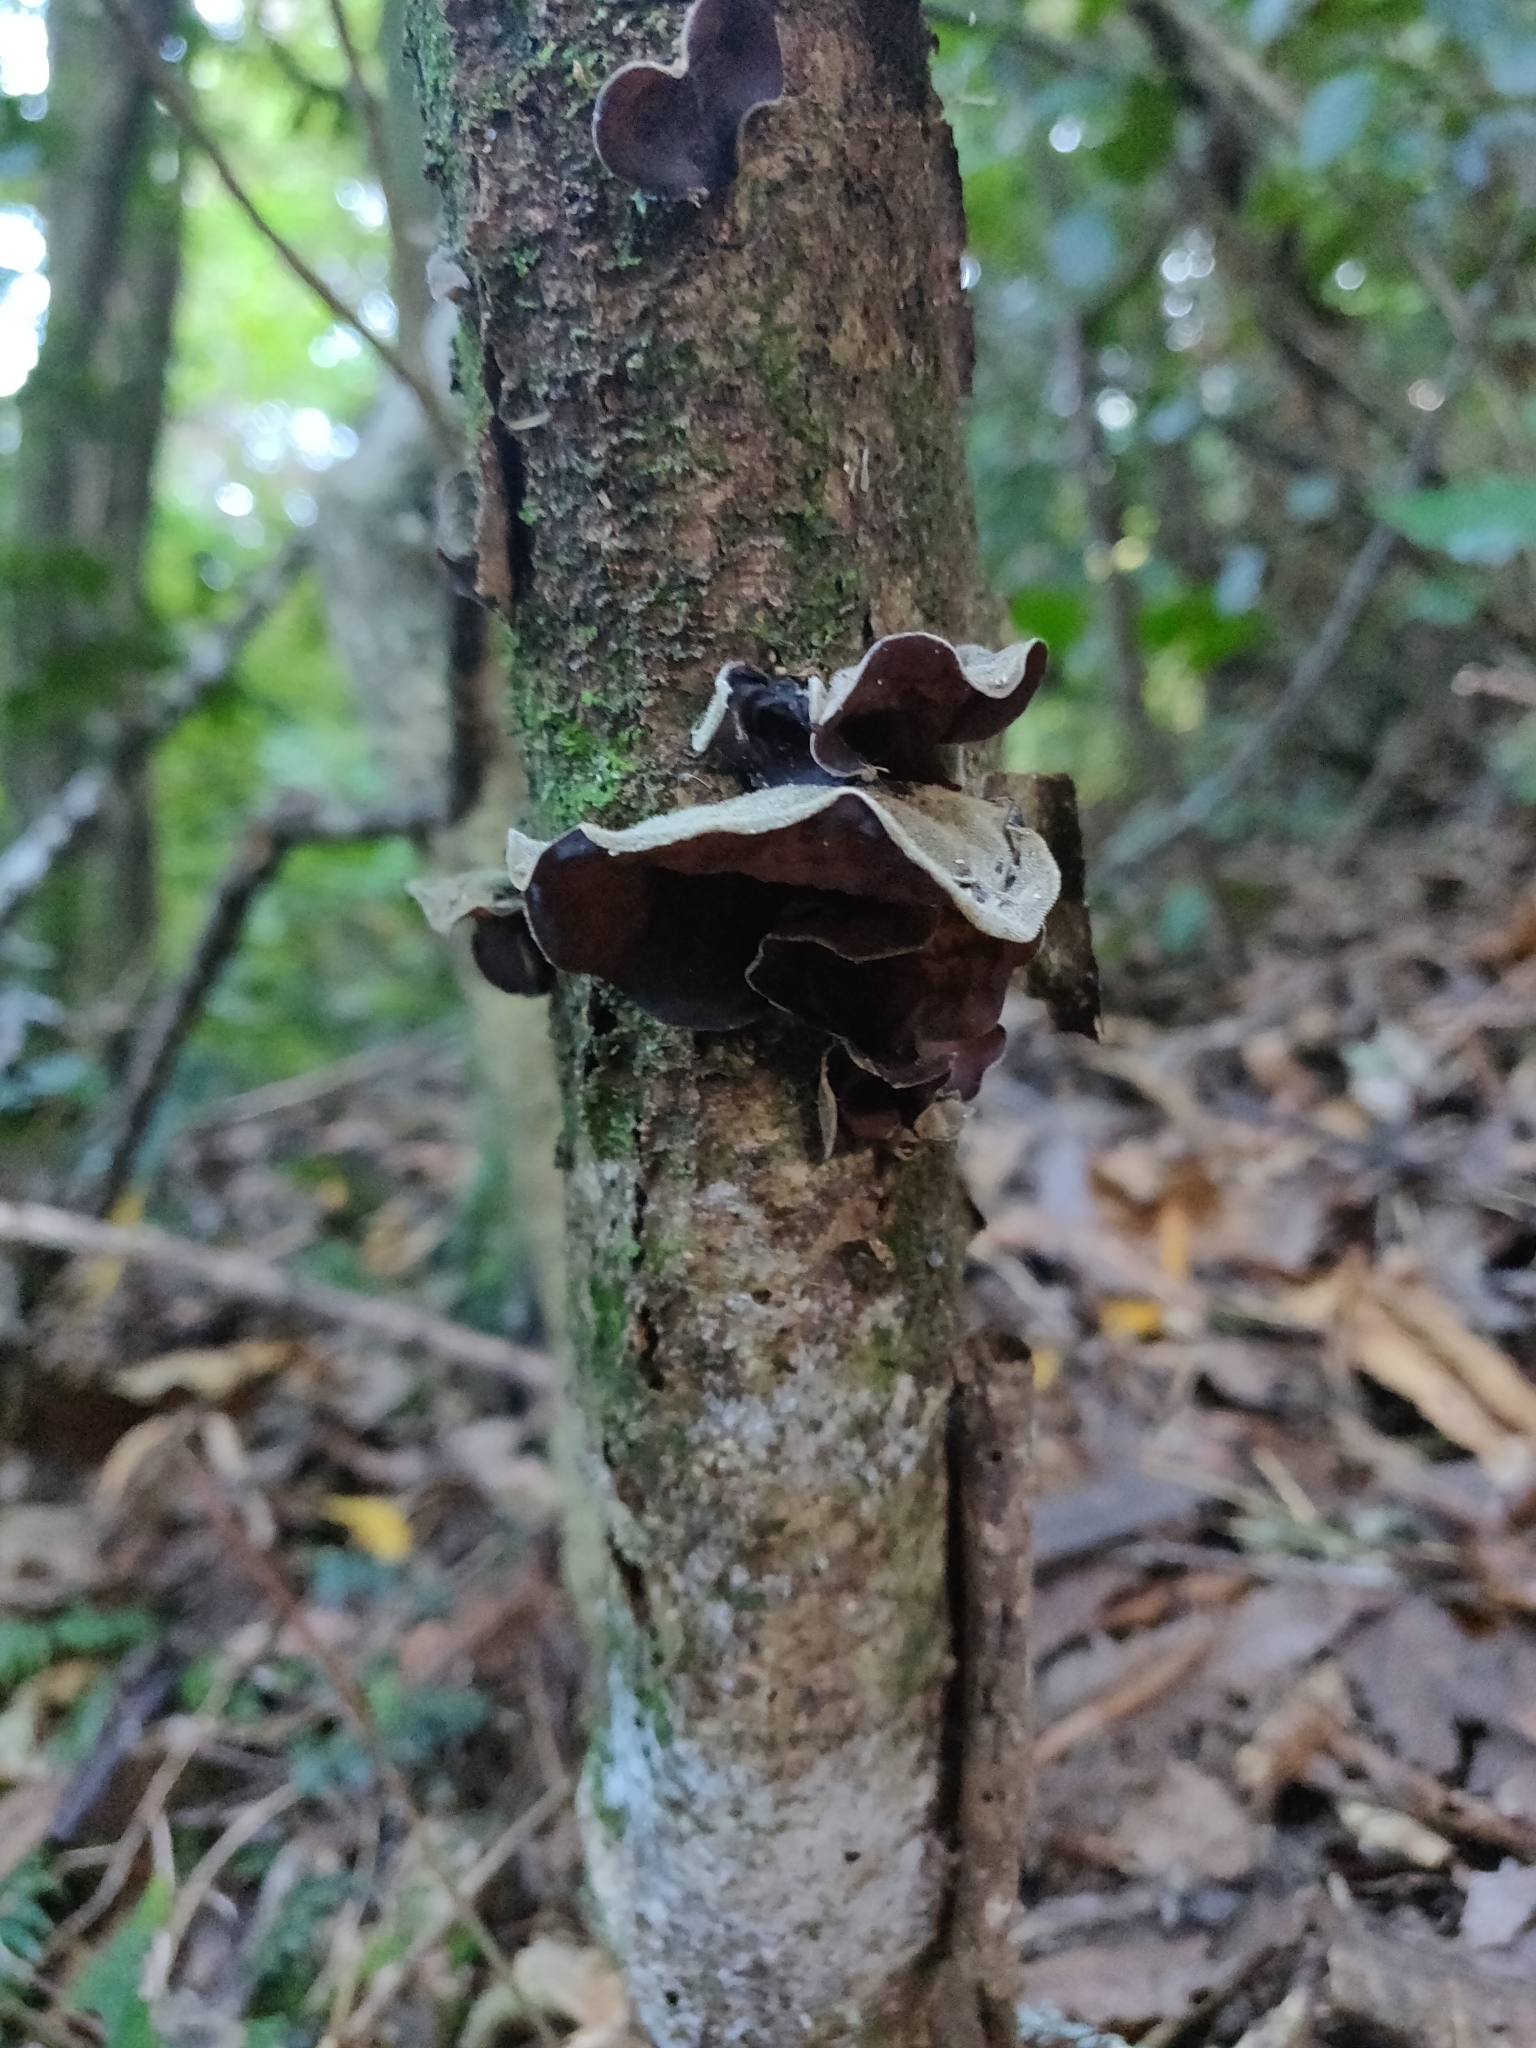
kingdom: Fungi
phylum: Basidiomycota
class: Agaricomycetes
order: Auriculariales
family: Auriculariaceae
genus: Auricularia
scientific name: Auricularia cornea
